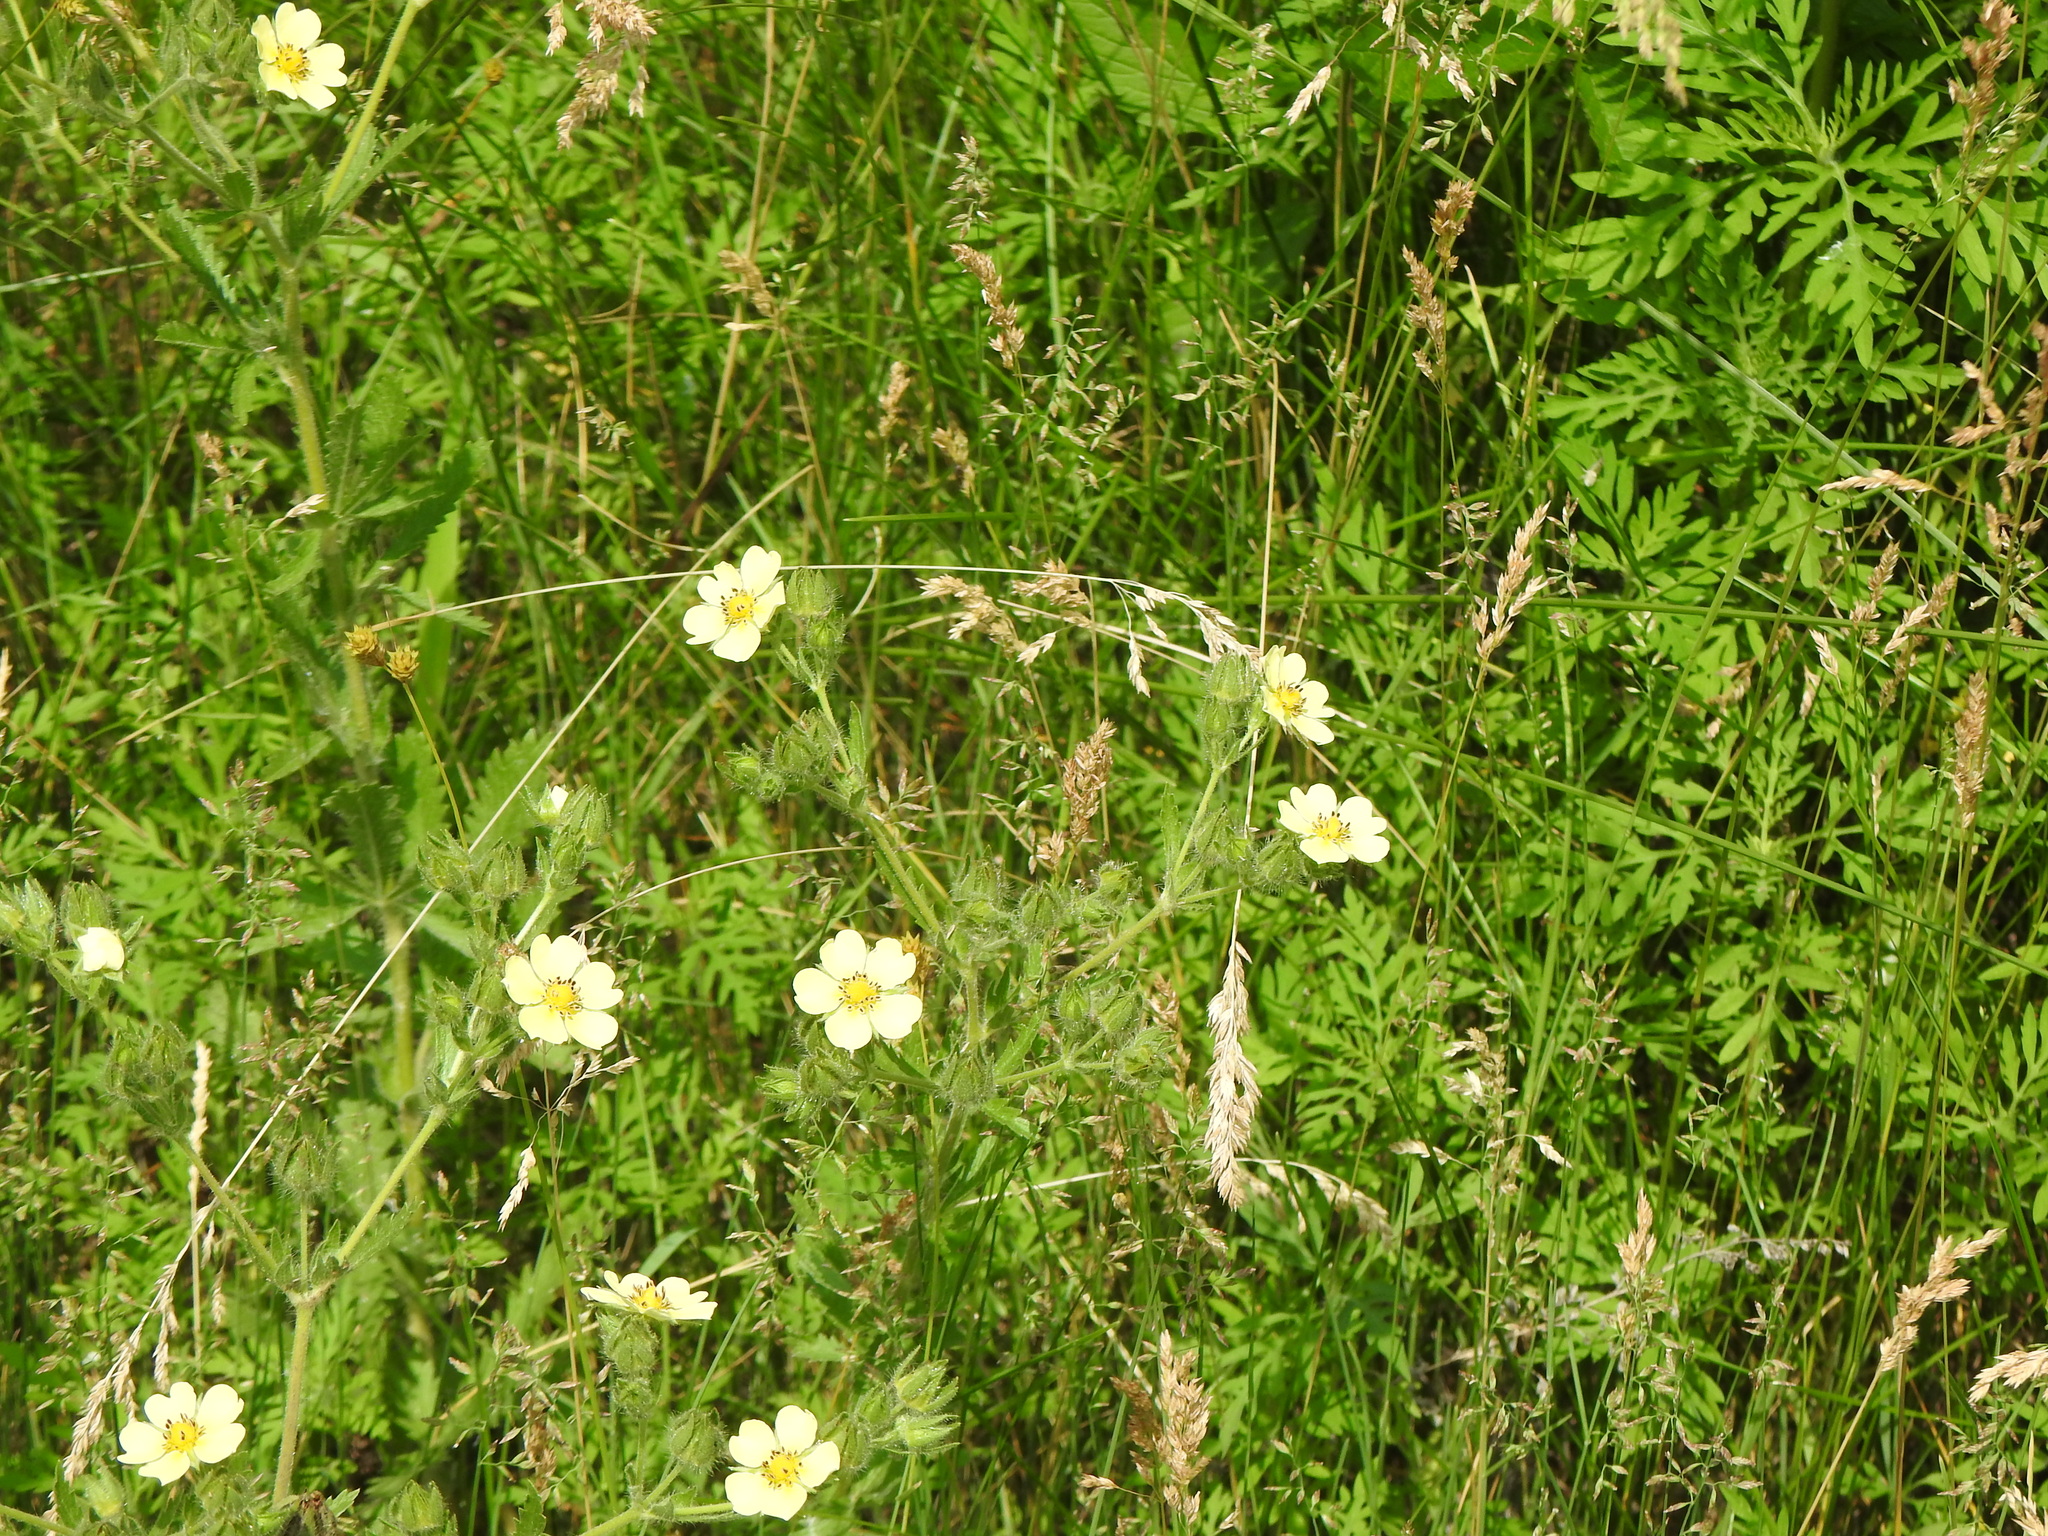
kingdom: Plantae
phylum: Tracheophyta
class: Magnoliopsida
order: Rosales
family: Rosaceae
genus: Potentilla
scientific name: Potentilla recta
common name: Sulphur cinquefoil
